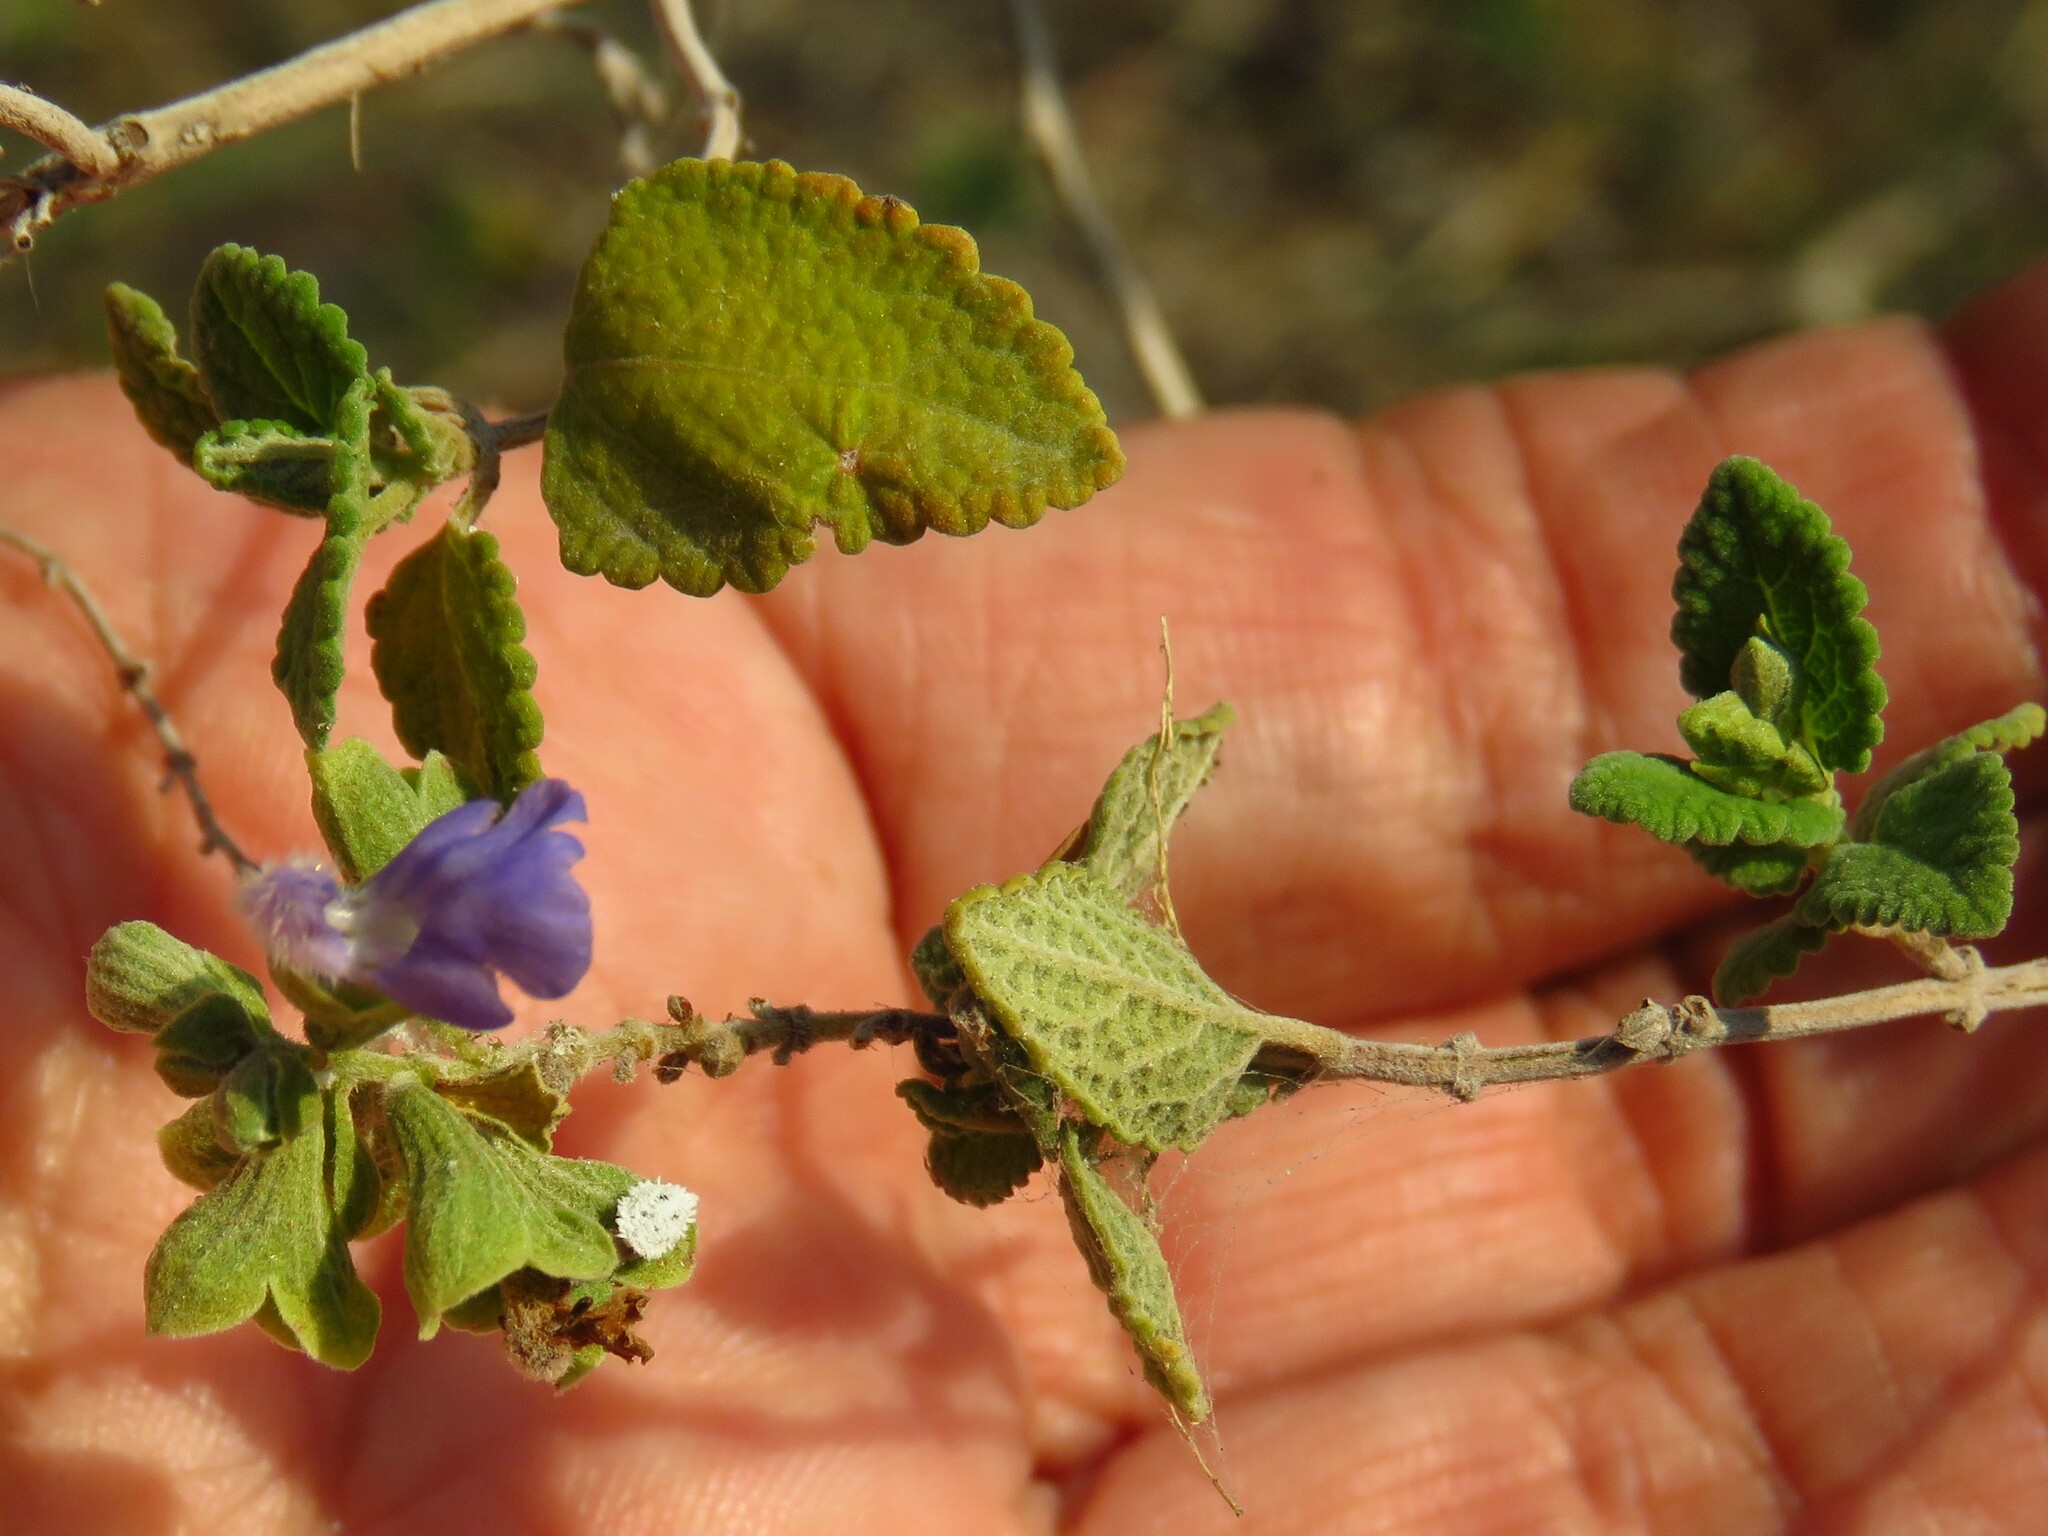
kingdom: Plantae
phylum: Tracheophyta
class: Magnoliopsida
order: Lamiales
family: Lamiaceae
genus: Salvia
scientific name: Salvia ballotiflora
